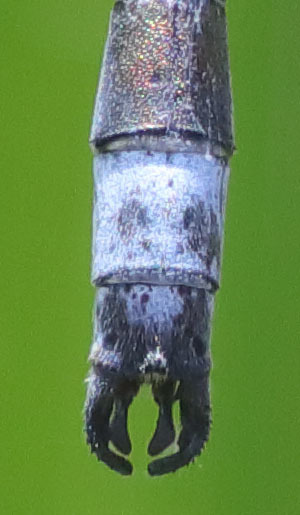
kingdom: Animalia
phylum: Arthropoda
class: Insecta
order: Odonata
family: Lestidae
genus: Lestes
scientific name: Lestes stultus
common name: Black spreadwing
